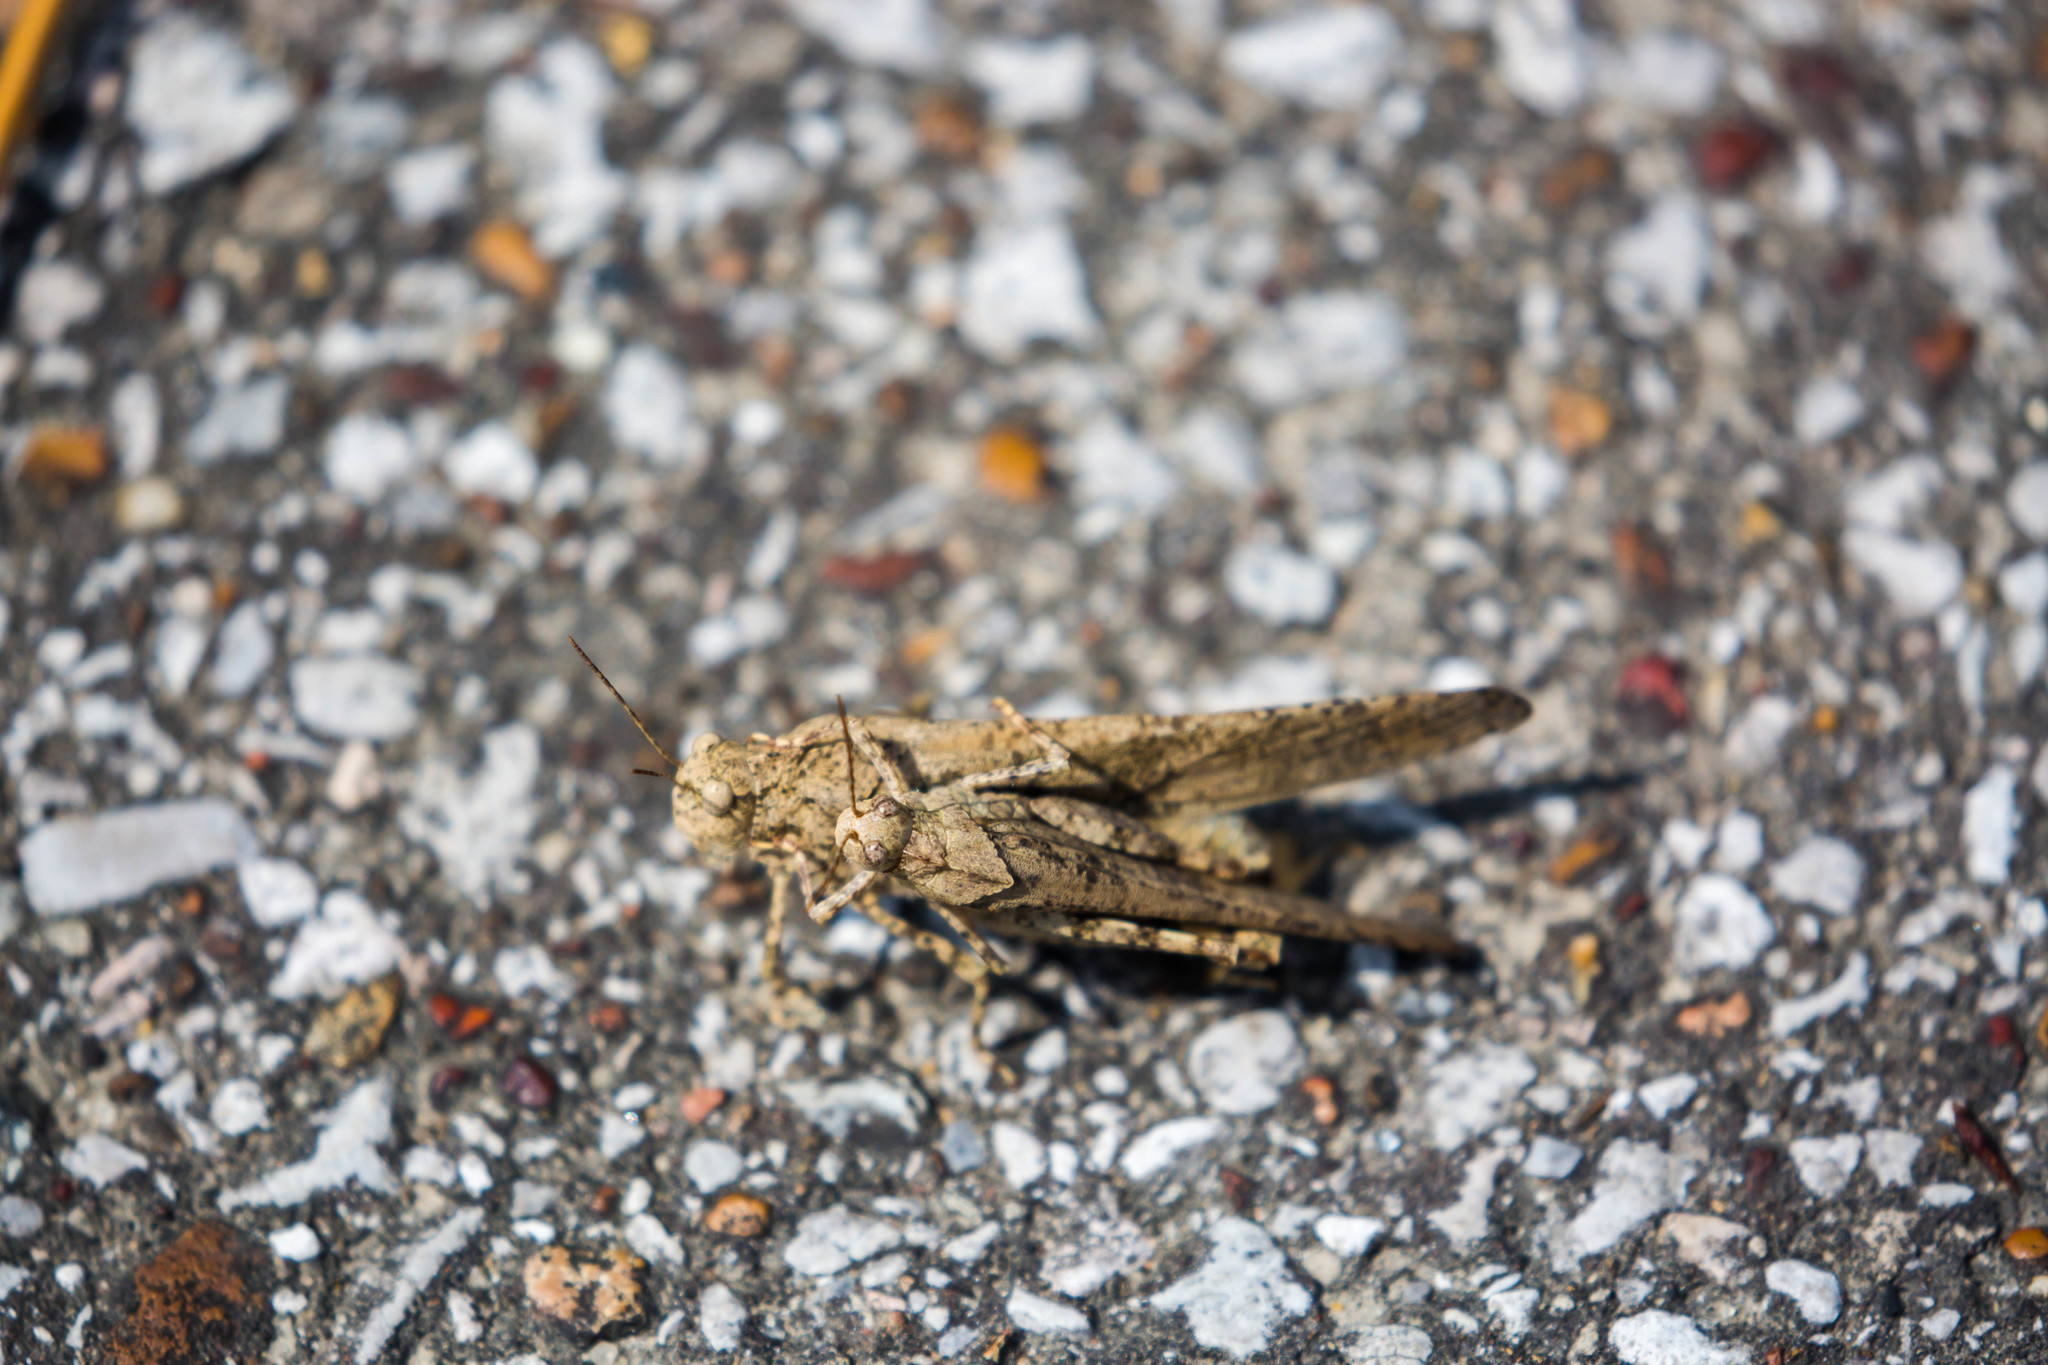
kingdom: Animalia
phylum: Arthropoda
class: Insecta
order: Orthoptera
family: Acrididae
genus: Dissosteira
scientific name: Dissosteira carolina
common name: Carolina grasshopper
